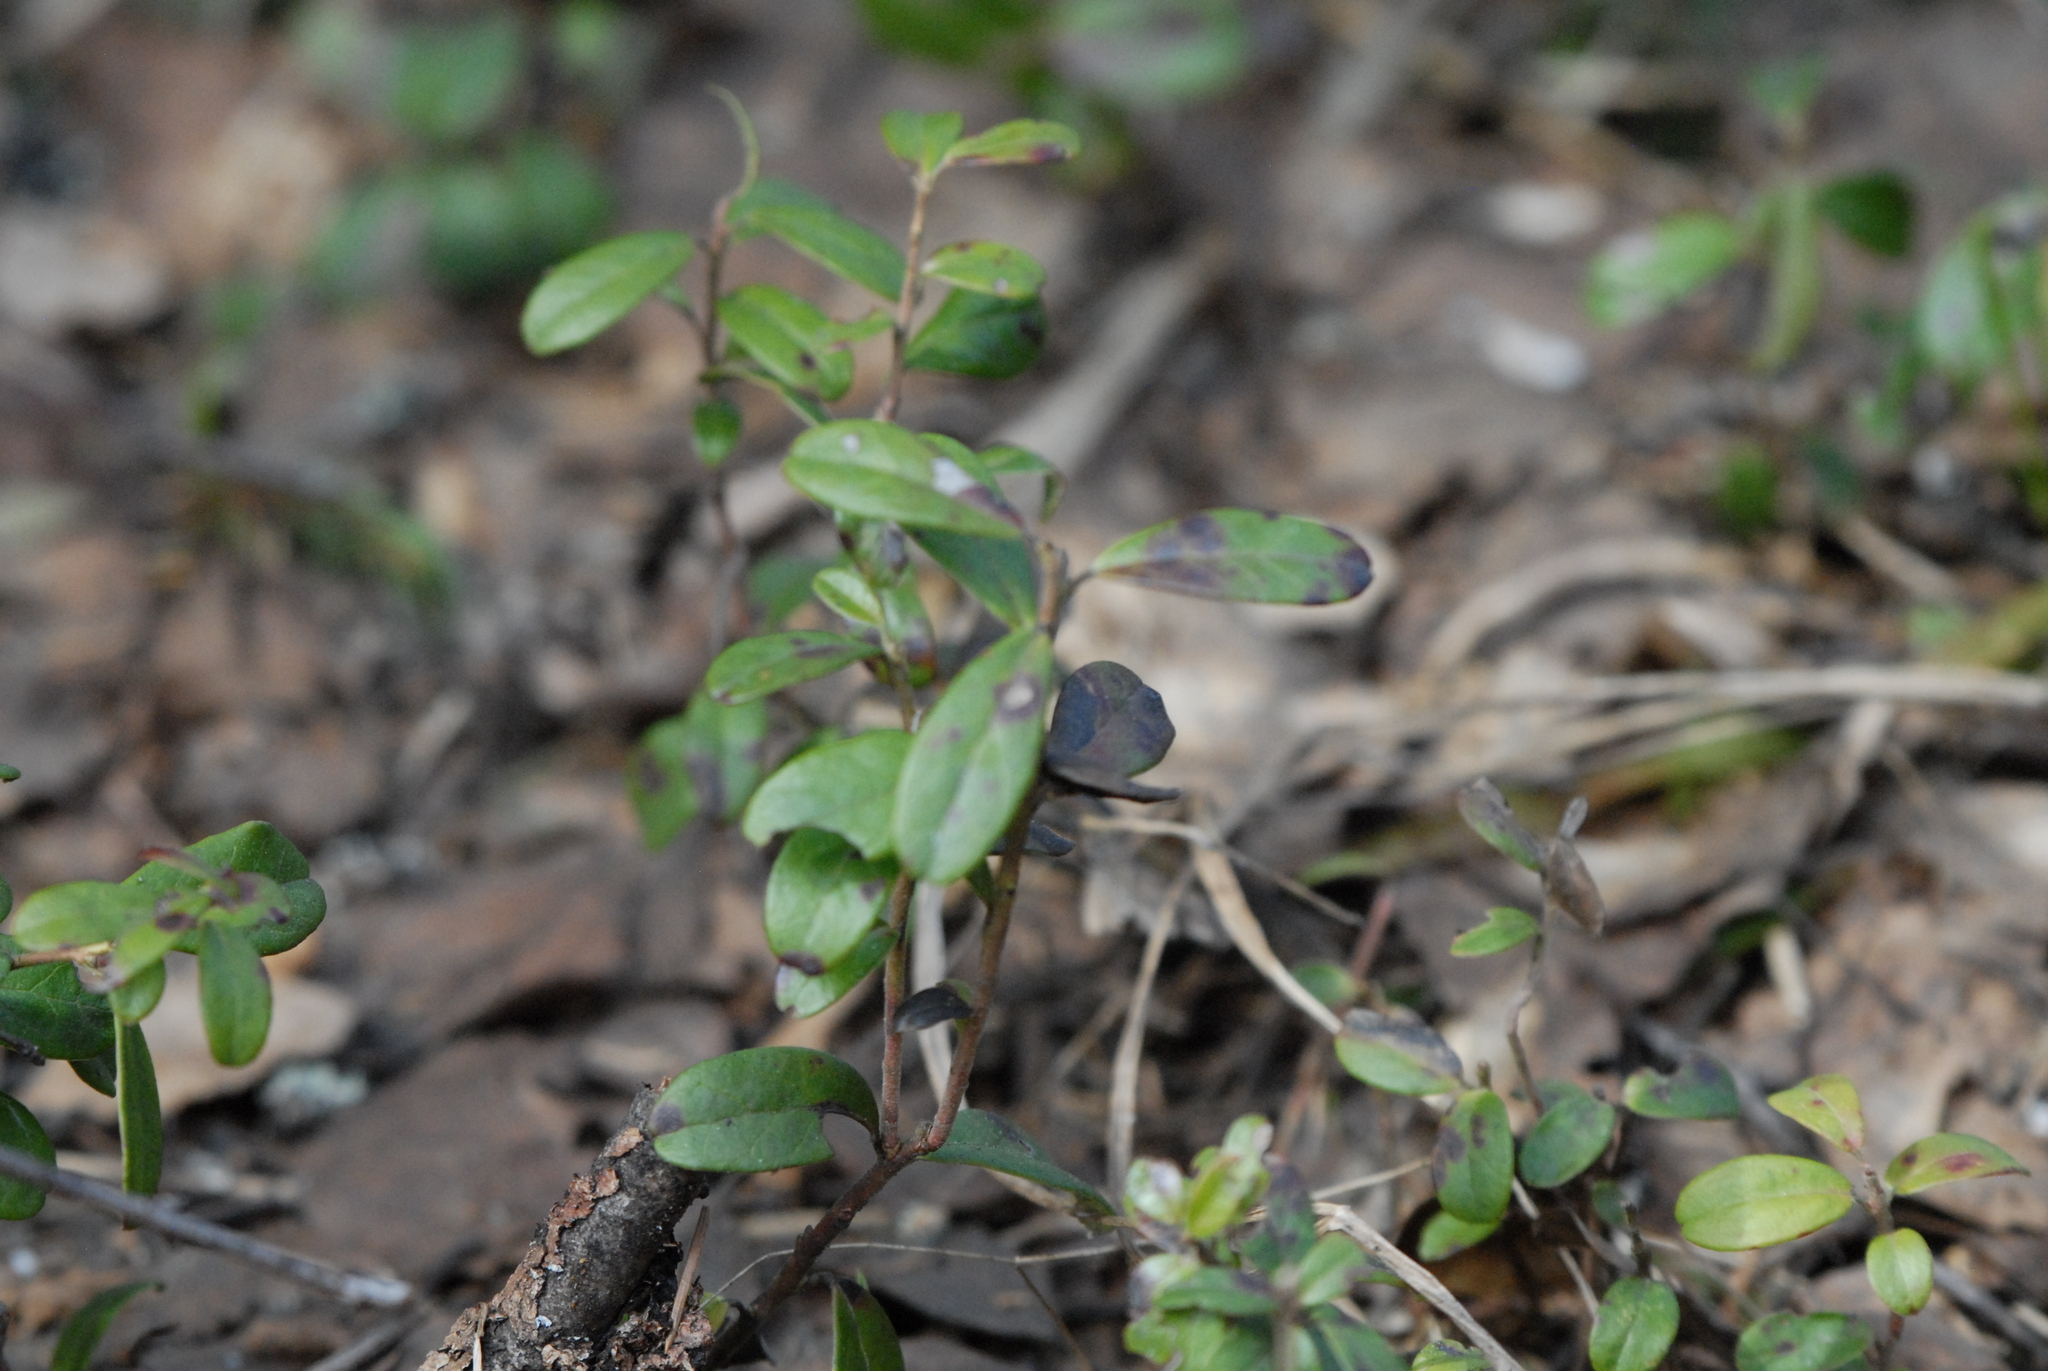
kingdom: Plantae
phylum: Tracheophyta
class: Magnoliopsida
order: Ericales
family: Ericaceae
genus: Vaccinium
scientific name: Vaccinium vitis-idaea
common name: Cowberry
